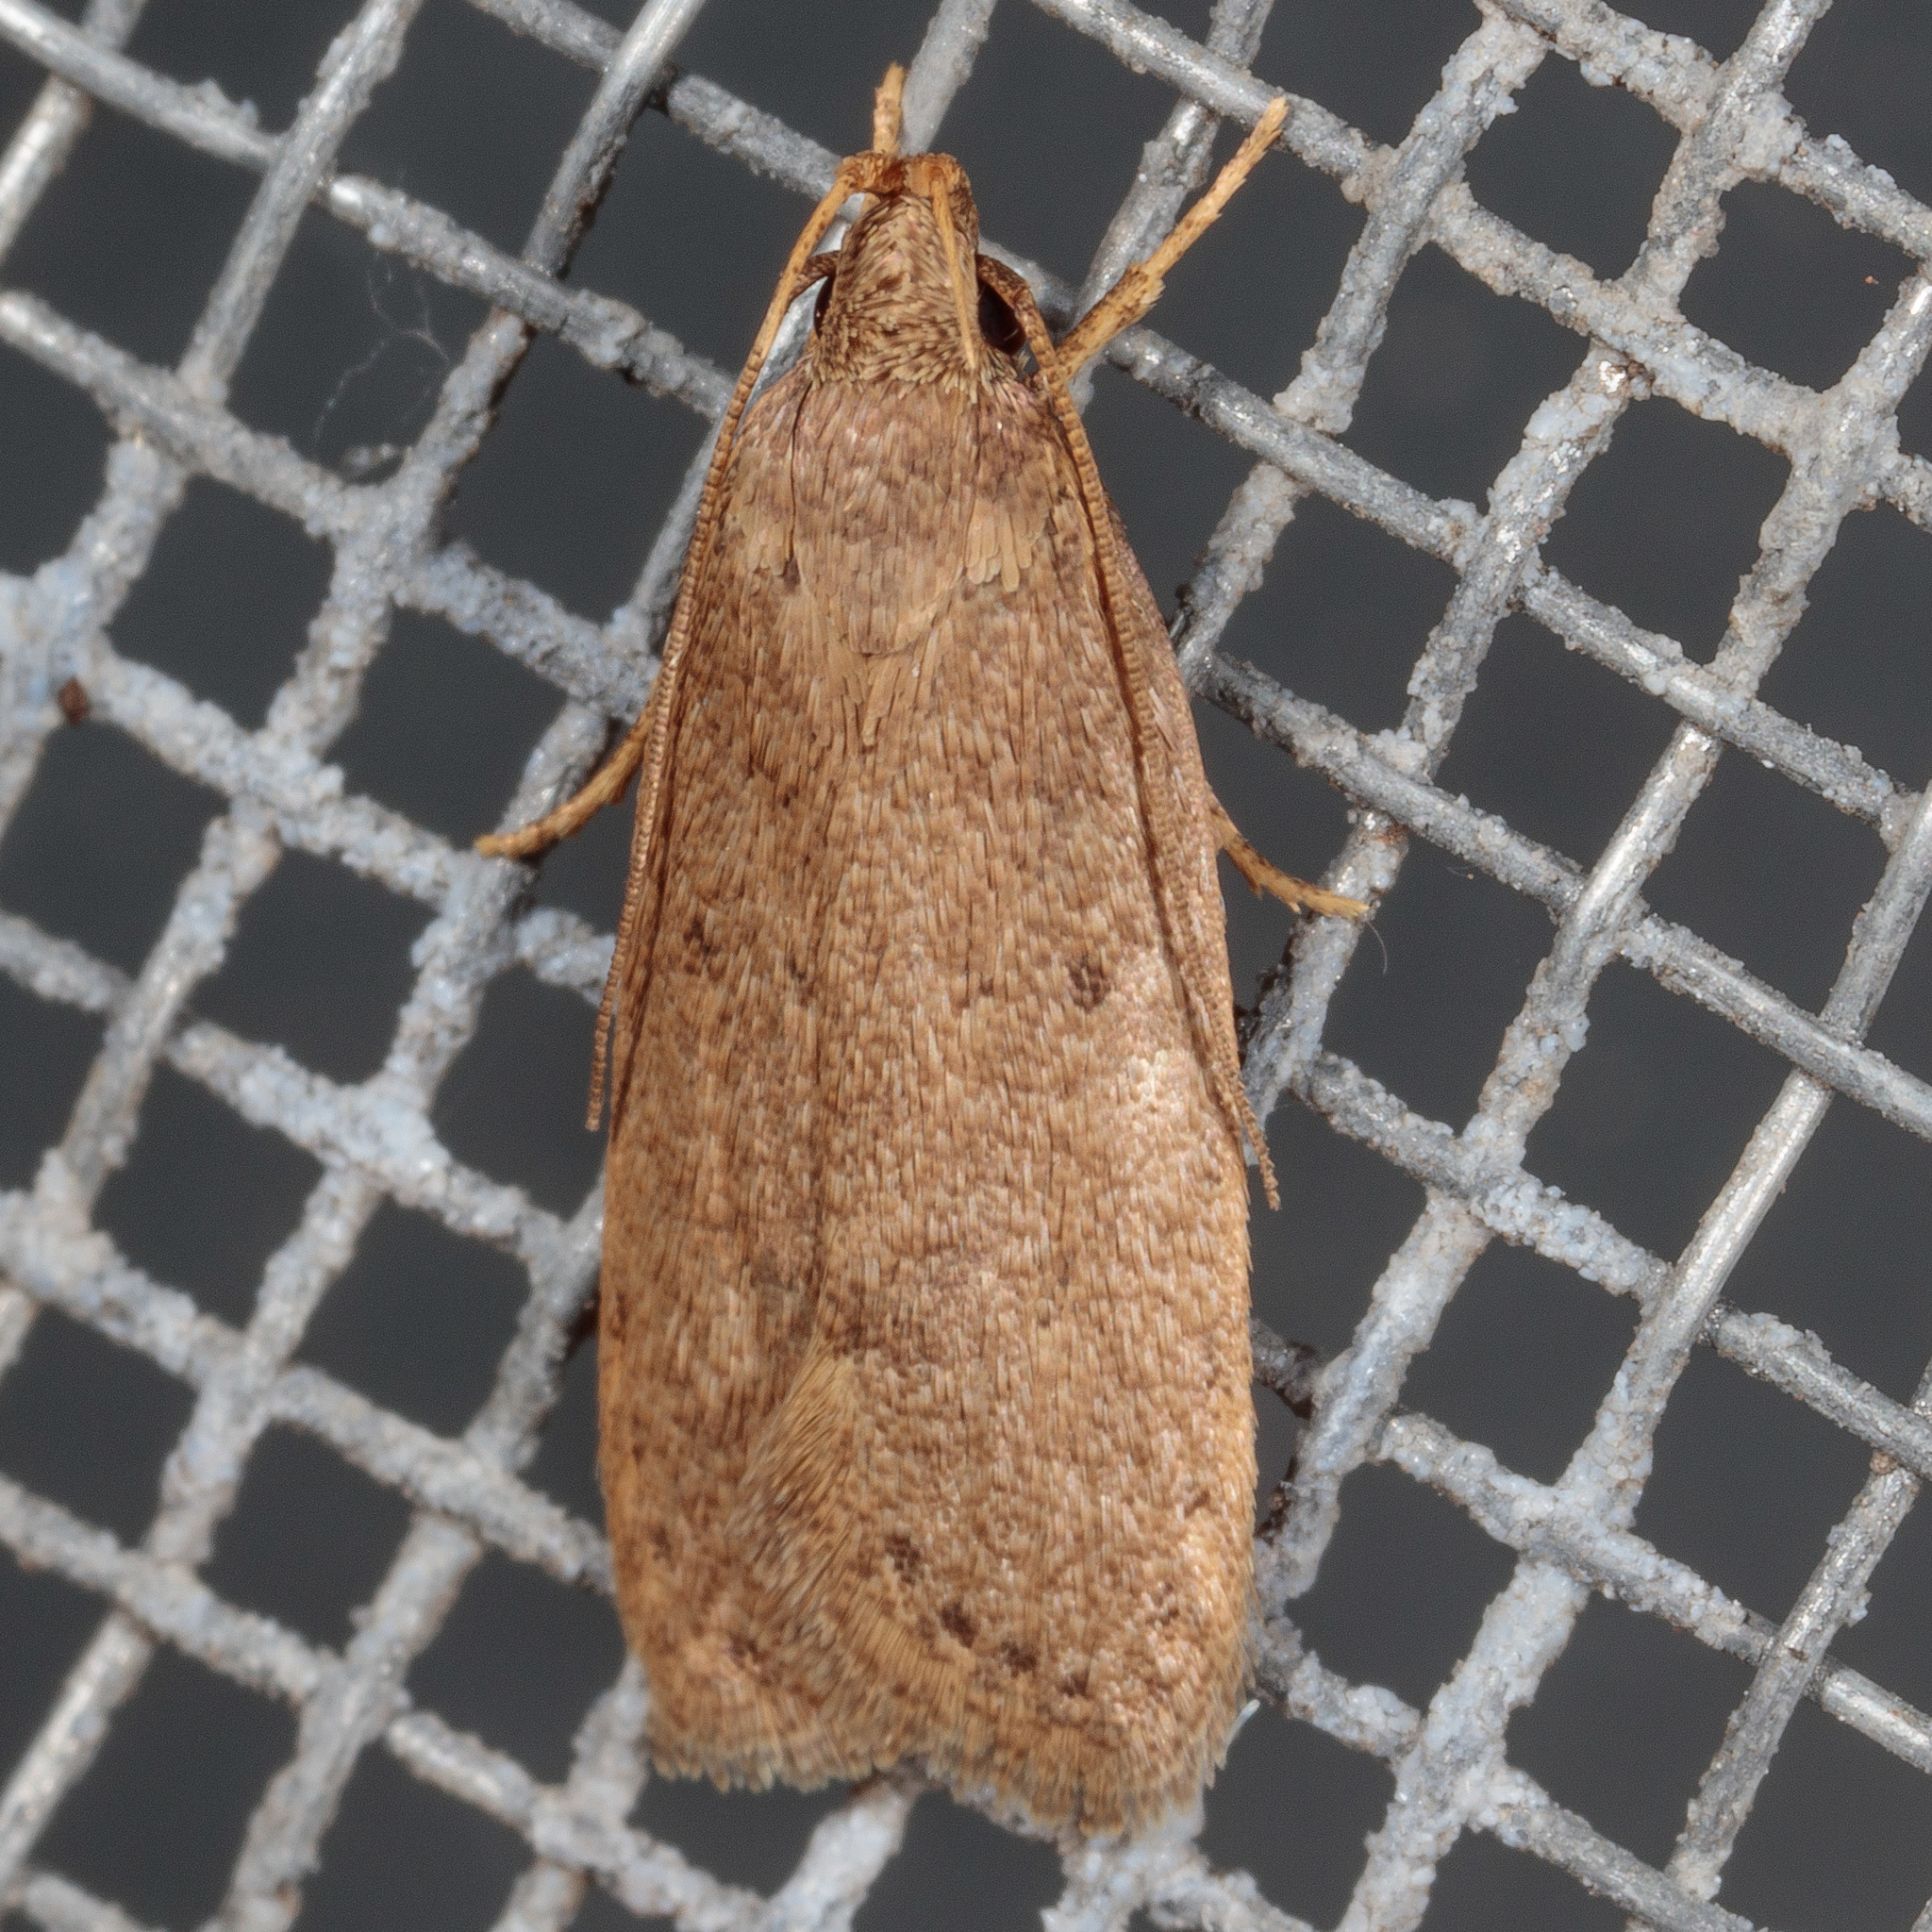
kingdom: Animalia
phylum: Arthropoda
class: Insecta
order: Lepidoptera
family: Autostichidae
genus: Autosticha
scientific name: Autosticha kyotensis
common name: Kyoto moth
